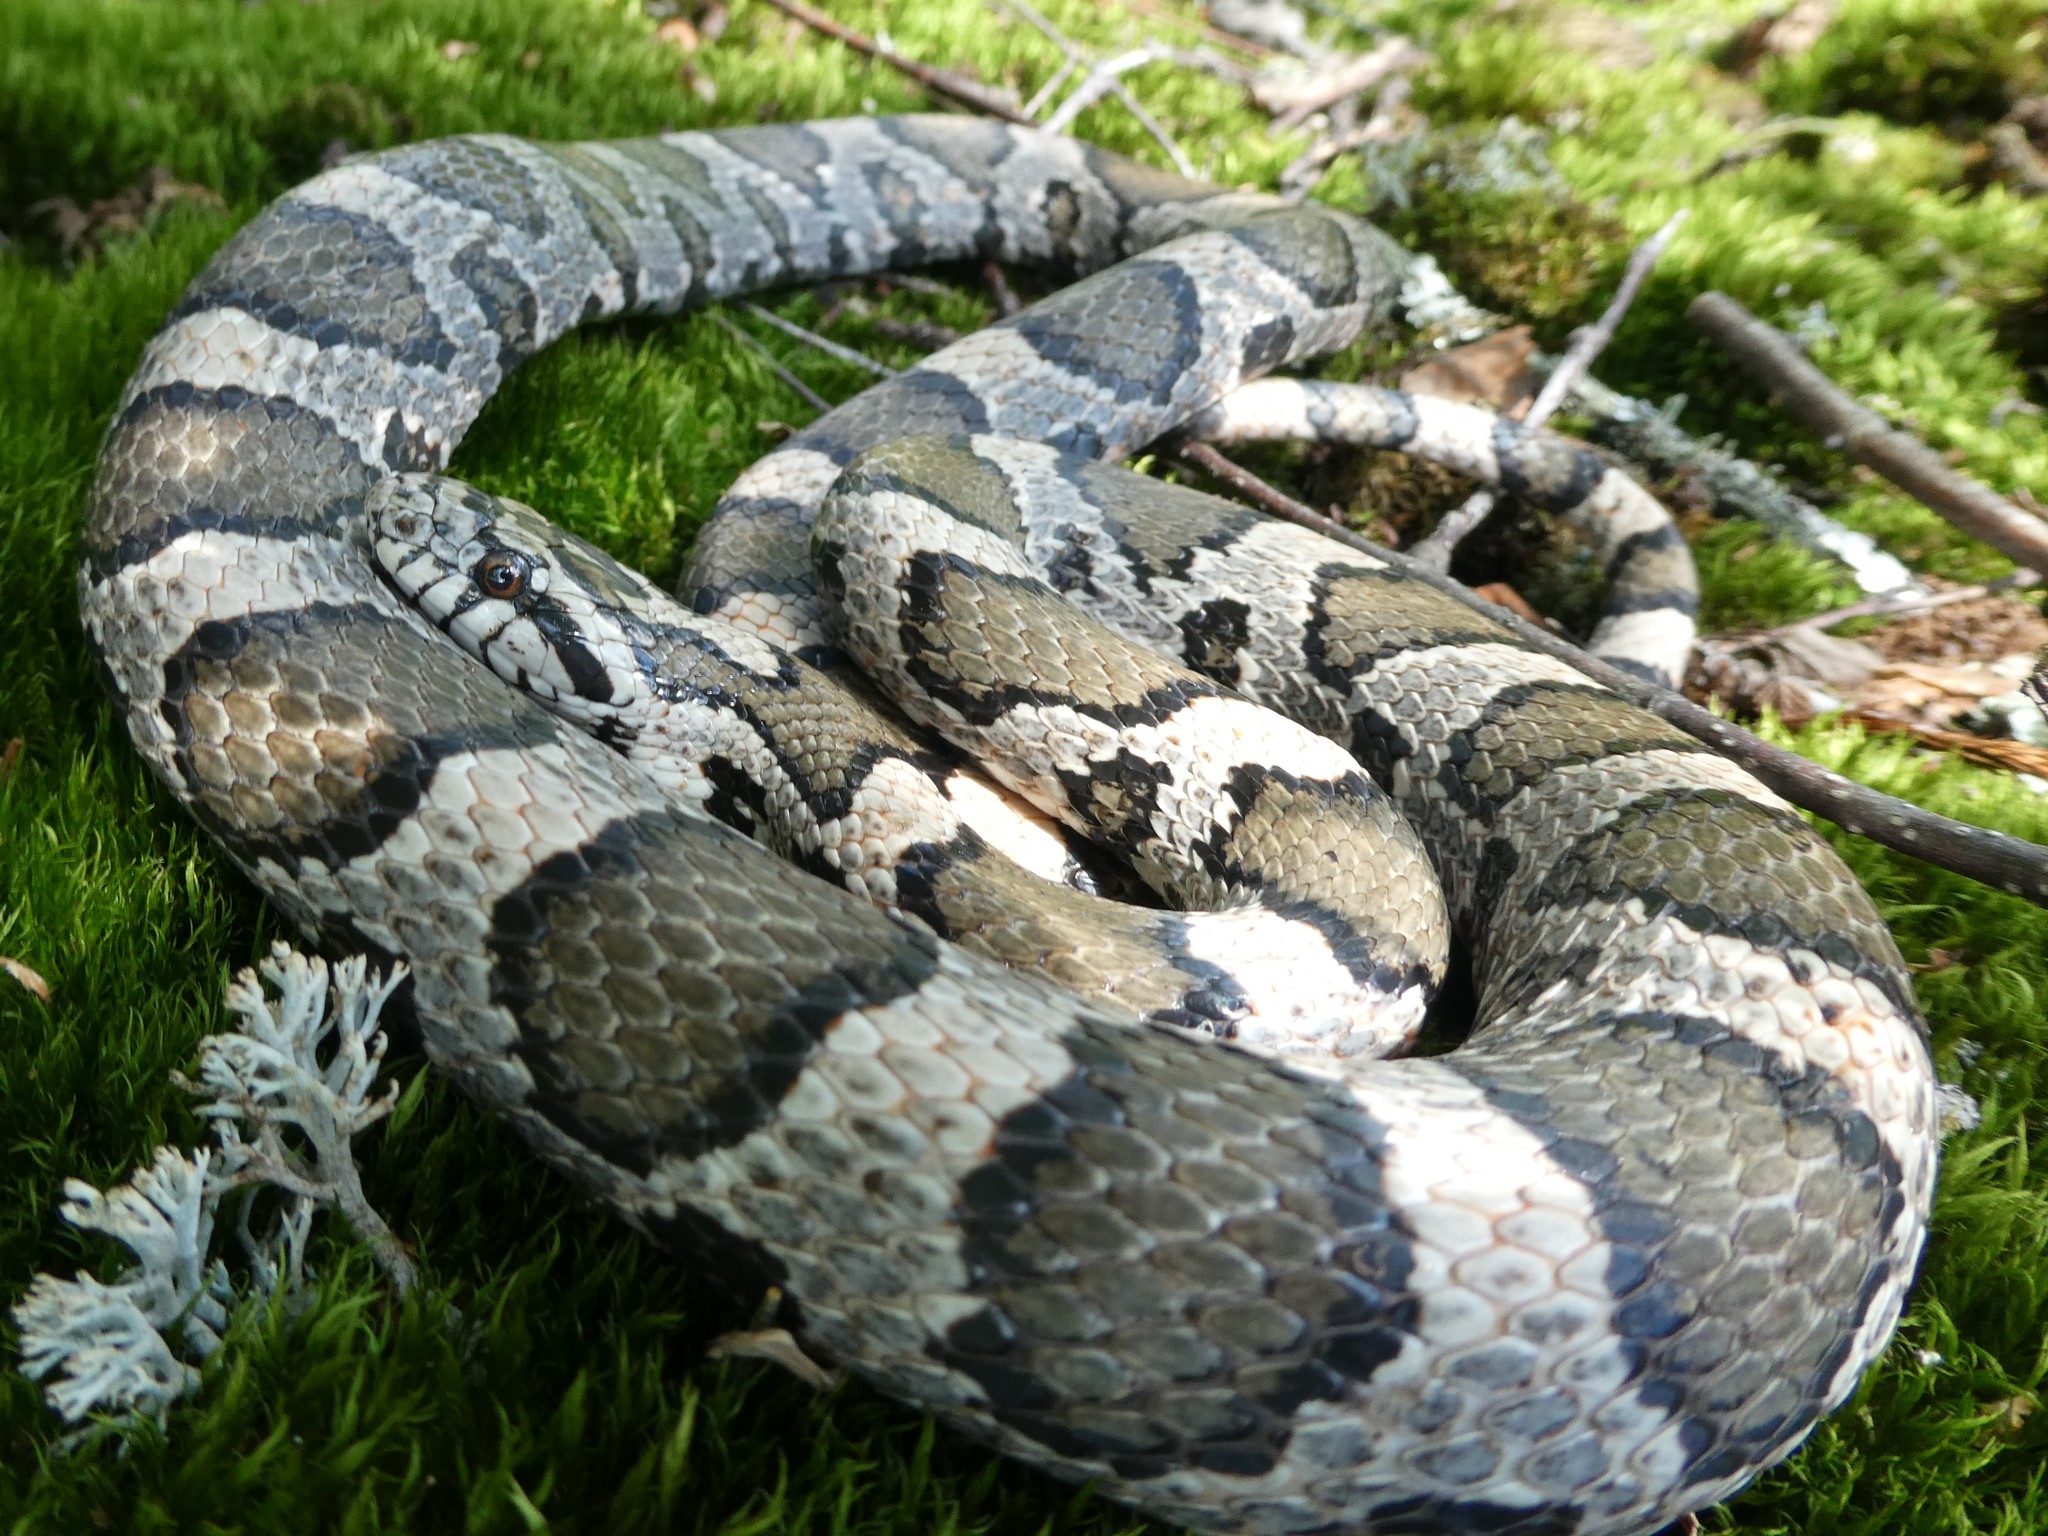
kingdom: Animalia
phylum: Chordata
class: Squamata
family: Colubridae
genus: Lampropeltis
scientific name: Lampropeltis triangulum
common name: Eastern milksnake
